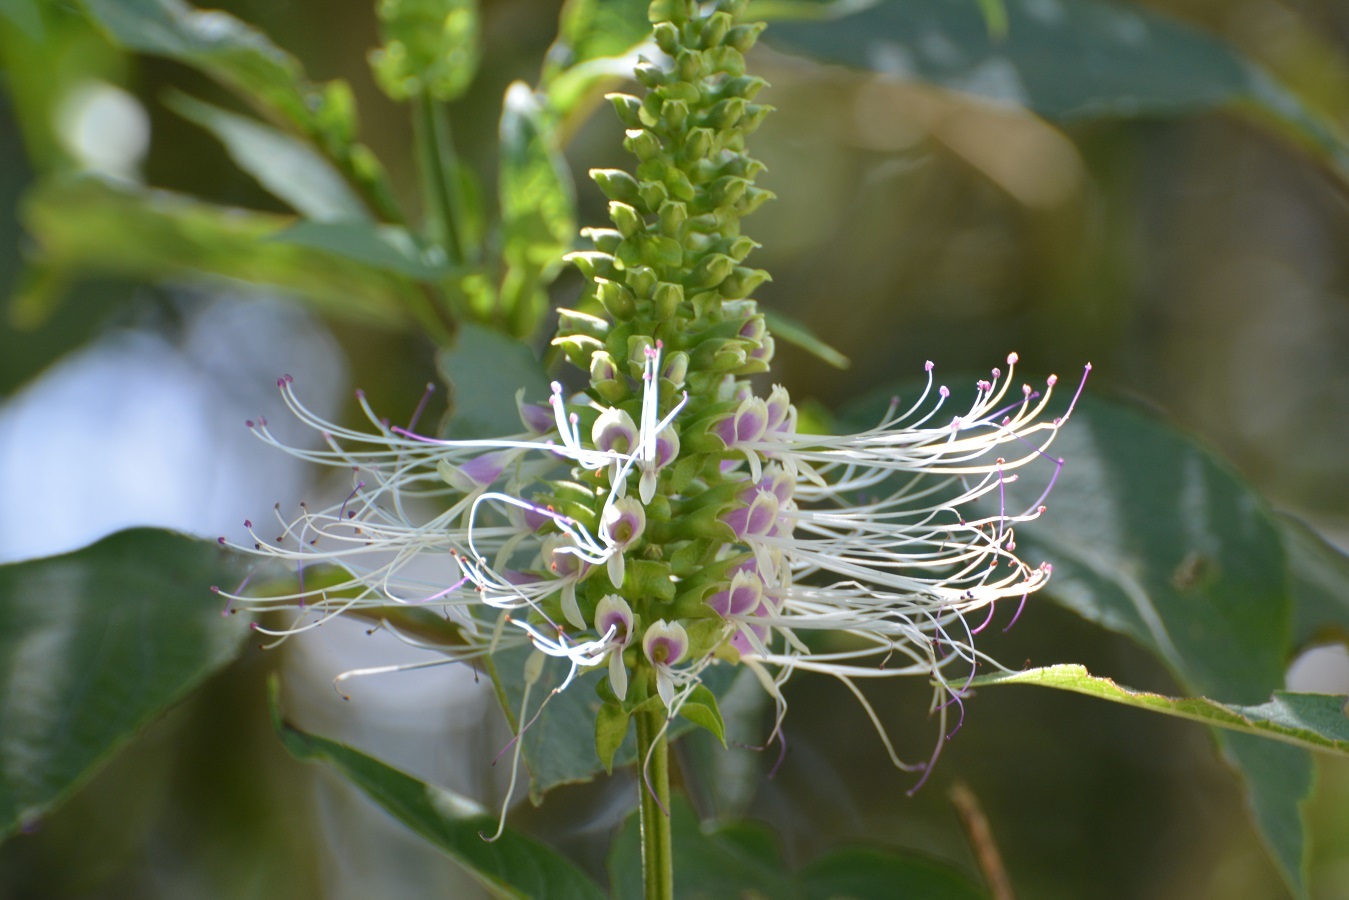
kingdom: Plantae
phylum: Tracheophyta
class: Magnoliopsida
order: Lamiales
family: Lamiaceae
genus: Catoferia
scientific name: Catoferia chiapensis
